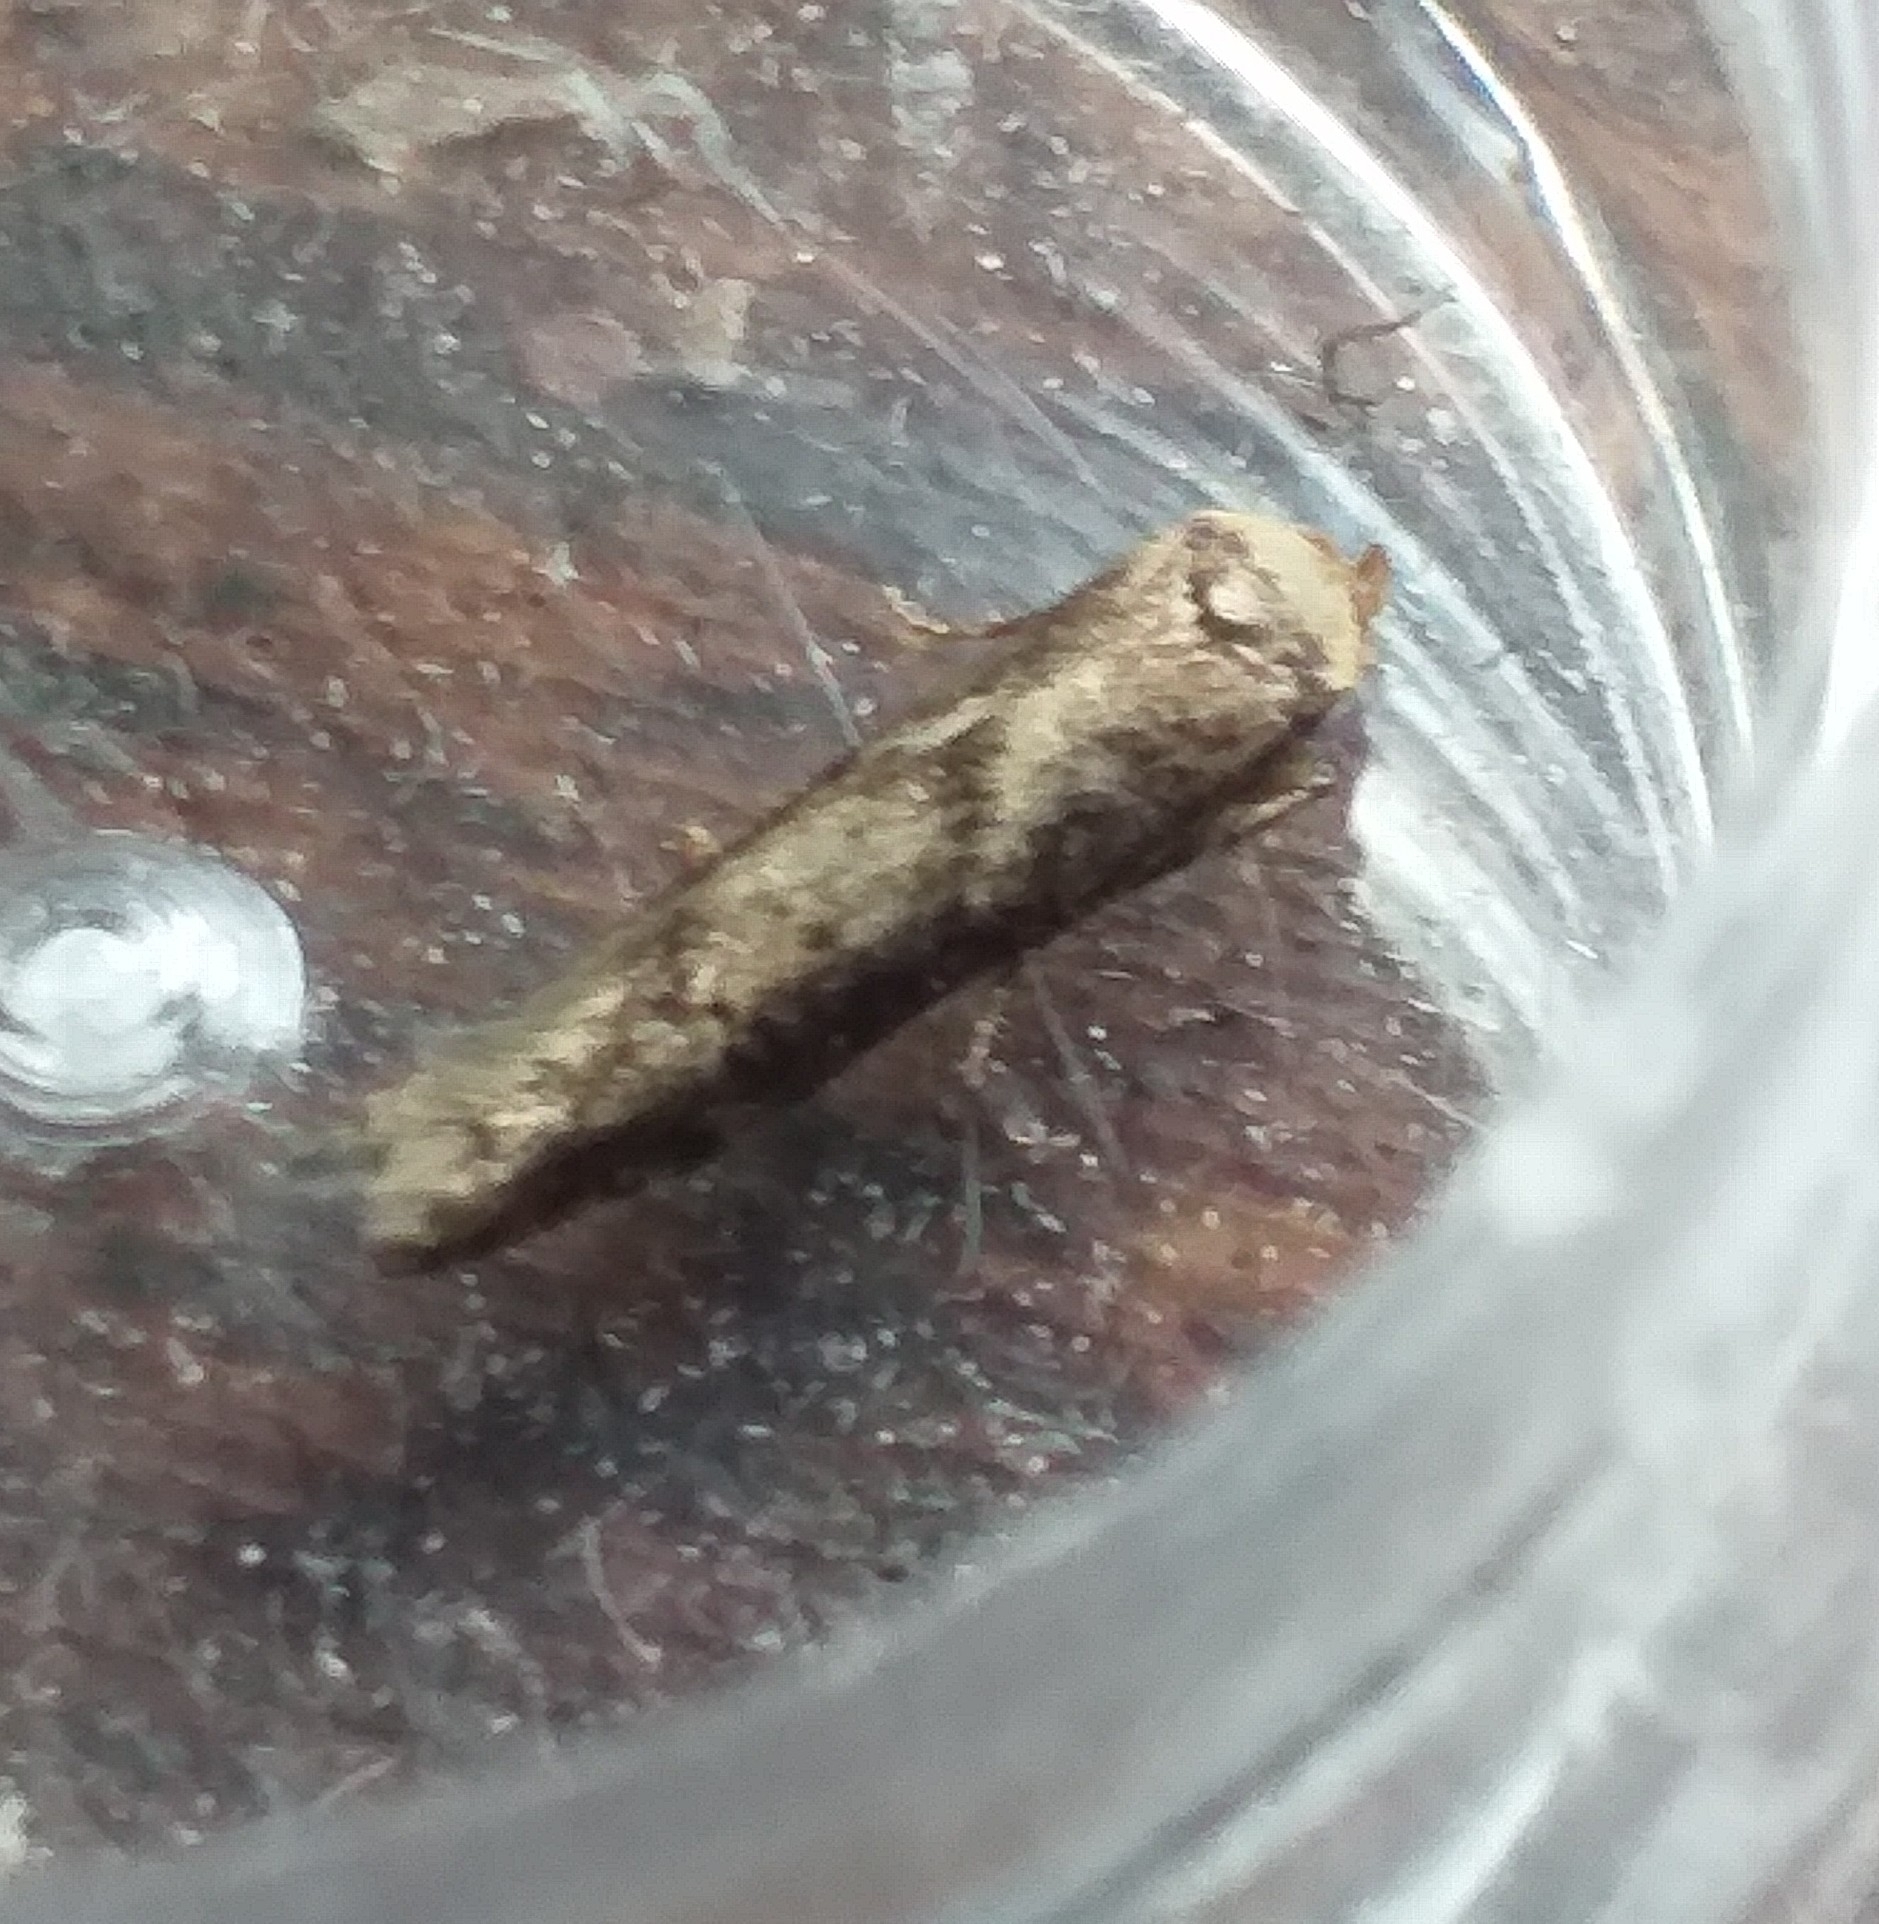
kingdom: Animalia
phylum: Arthropoda
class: Insecta
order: Lepidoptera
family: Blastobasidae
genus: Blastobasis
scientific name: Blastobasis adustella
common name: Dingy dowd
